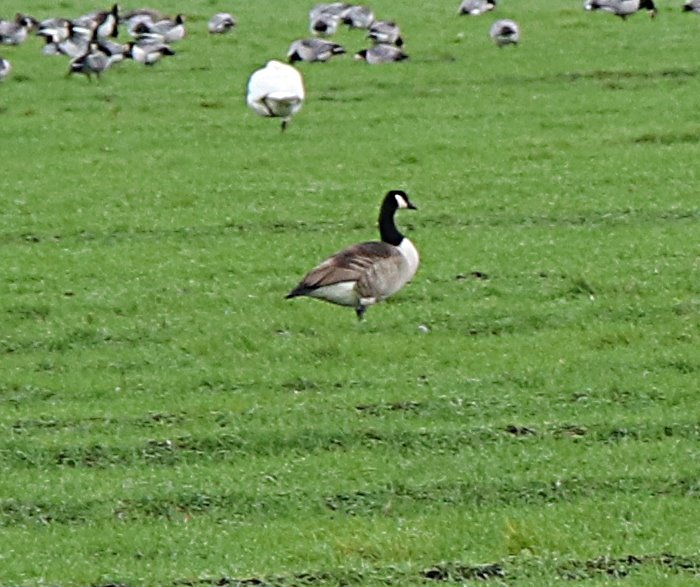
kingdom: Animalia
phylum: Chordata
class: Aves
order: Anseriformes
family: Anatidae
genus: Branta
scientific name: Branta canadensis
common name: Canada goose
